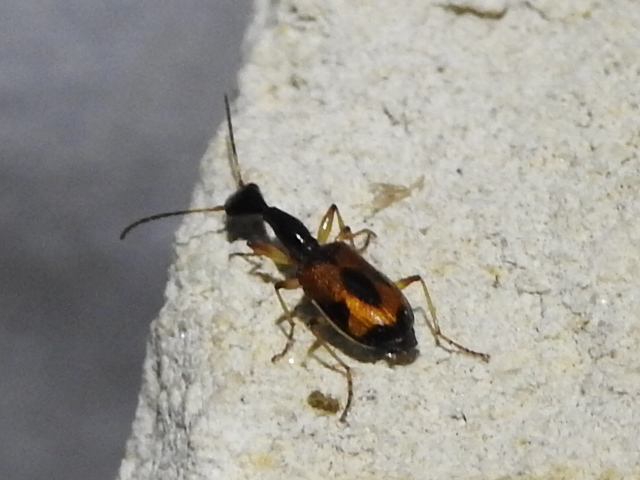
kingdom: Animalia
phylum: Arthropoda
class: Insecta
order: Coleoptera
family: Carabidae
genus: Colliuris
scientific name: Colliuris pensylvanica
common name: Long-necked ground beetle
